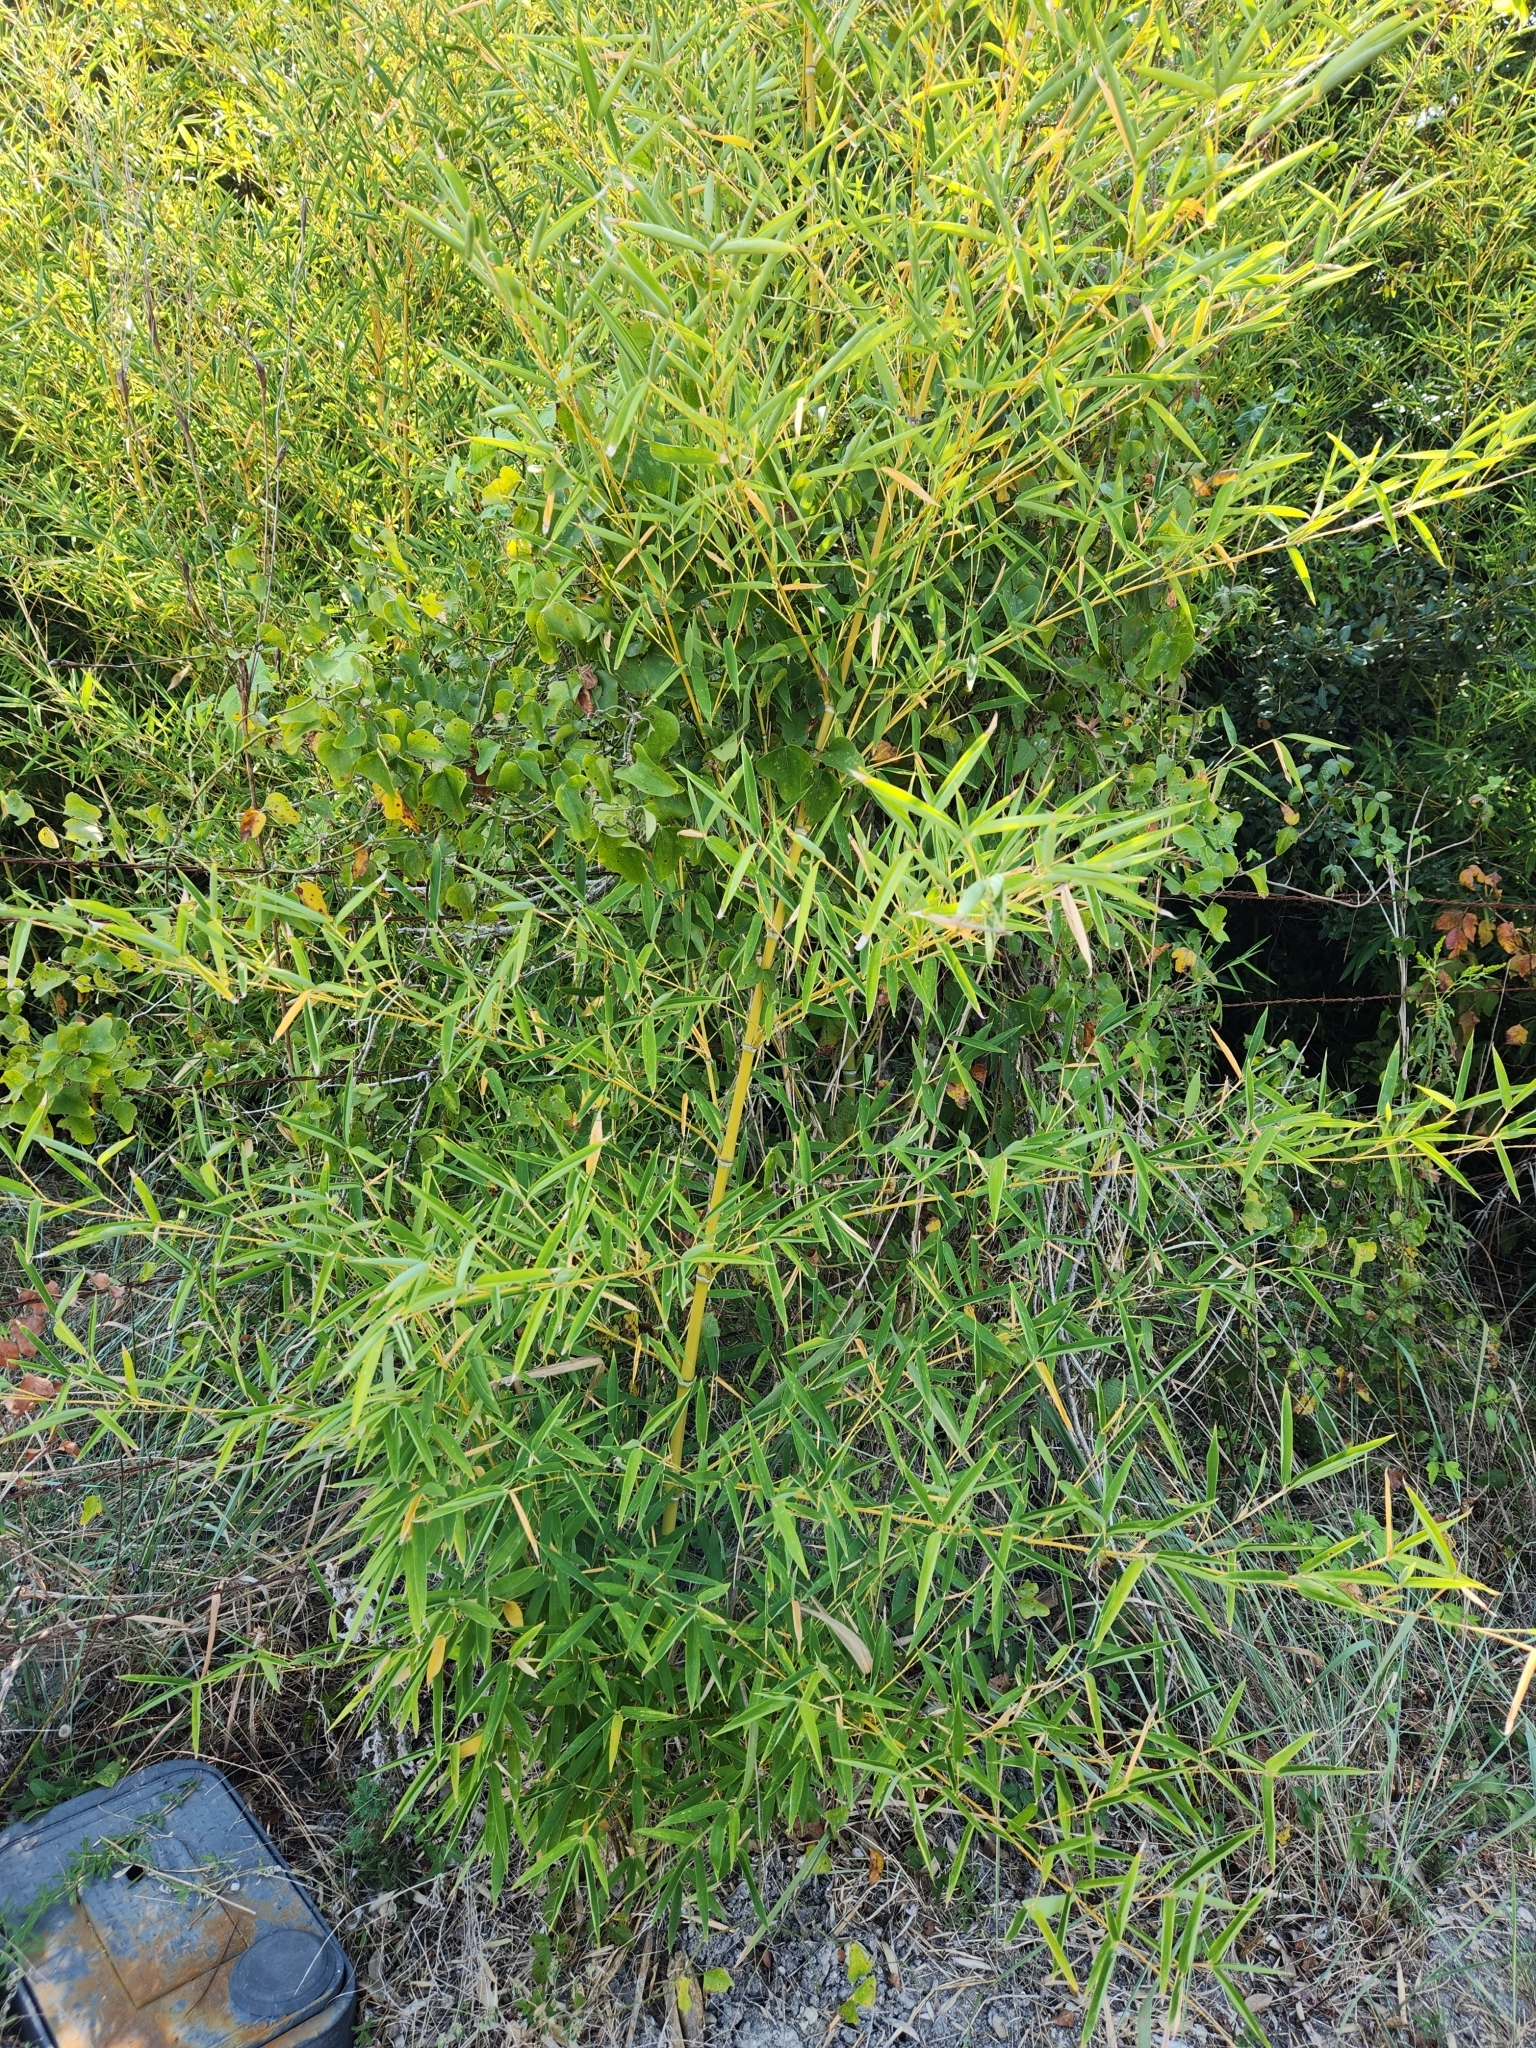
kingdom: Plantae
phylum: Tracheophyta
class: Liliopsida
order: Poales
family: Poaceae
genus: Phyllostachys
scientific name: Phyllostachys aurea
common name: Golden bamboo
